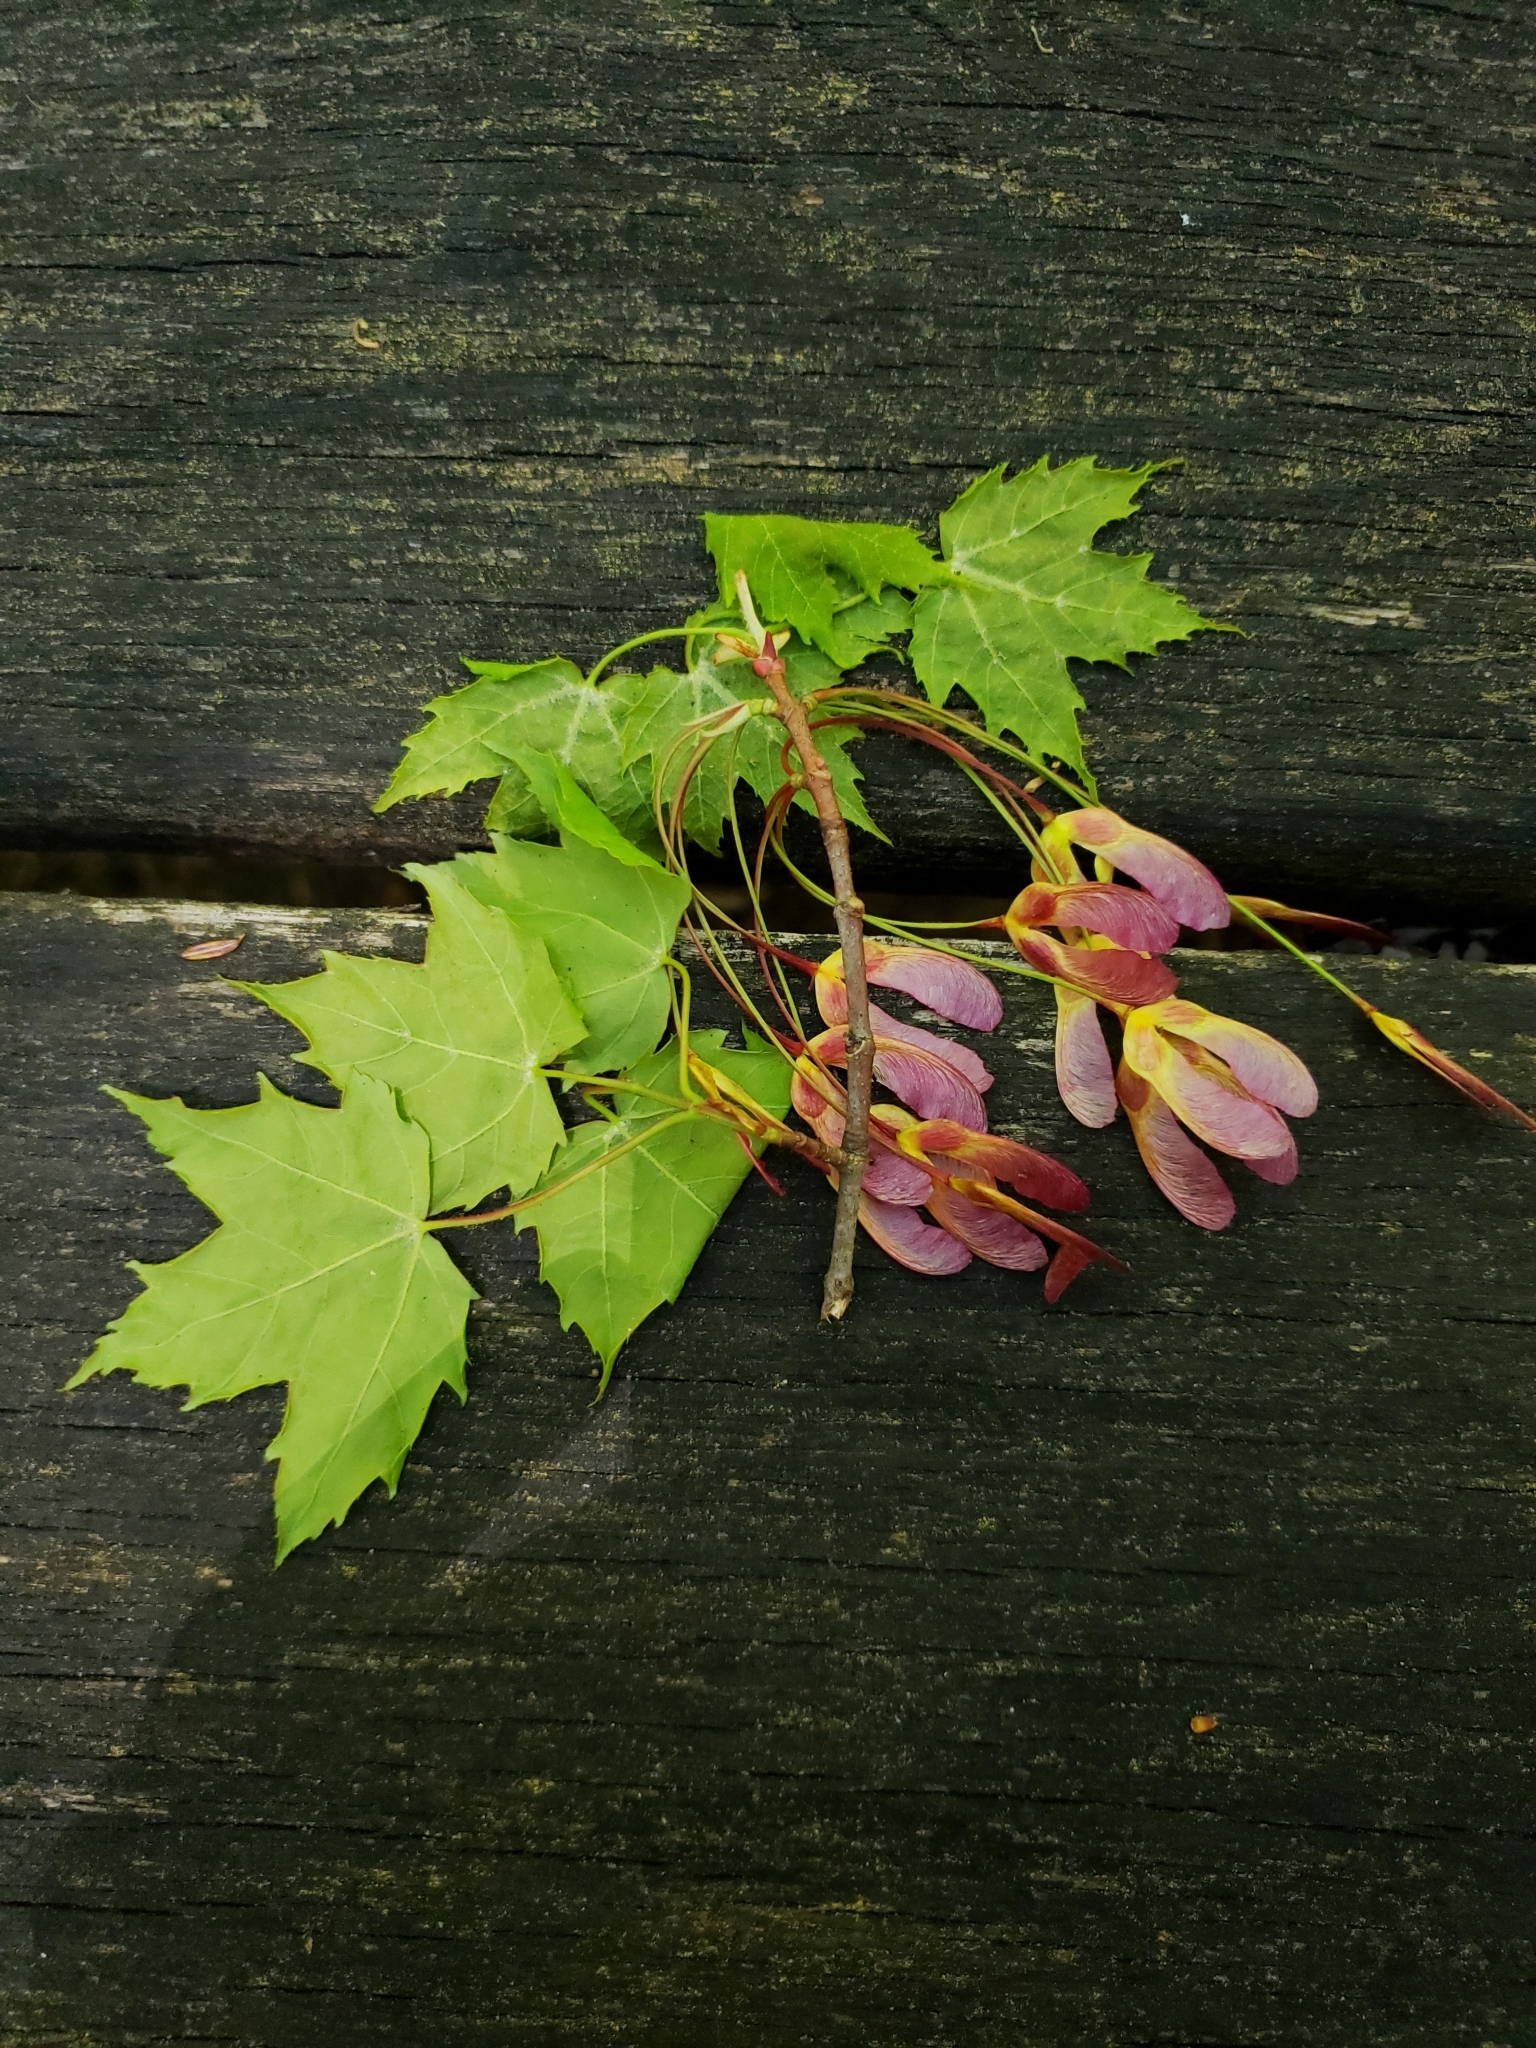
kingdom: Plantae
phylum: Tracheophyta
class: Magnoliopsida
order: Sapindales
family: Sapindaceae
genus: Acer
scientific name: Acer rubrum
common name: Red maple
